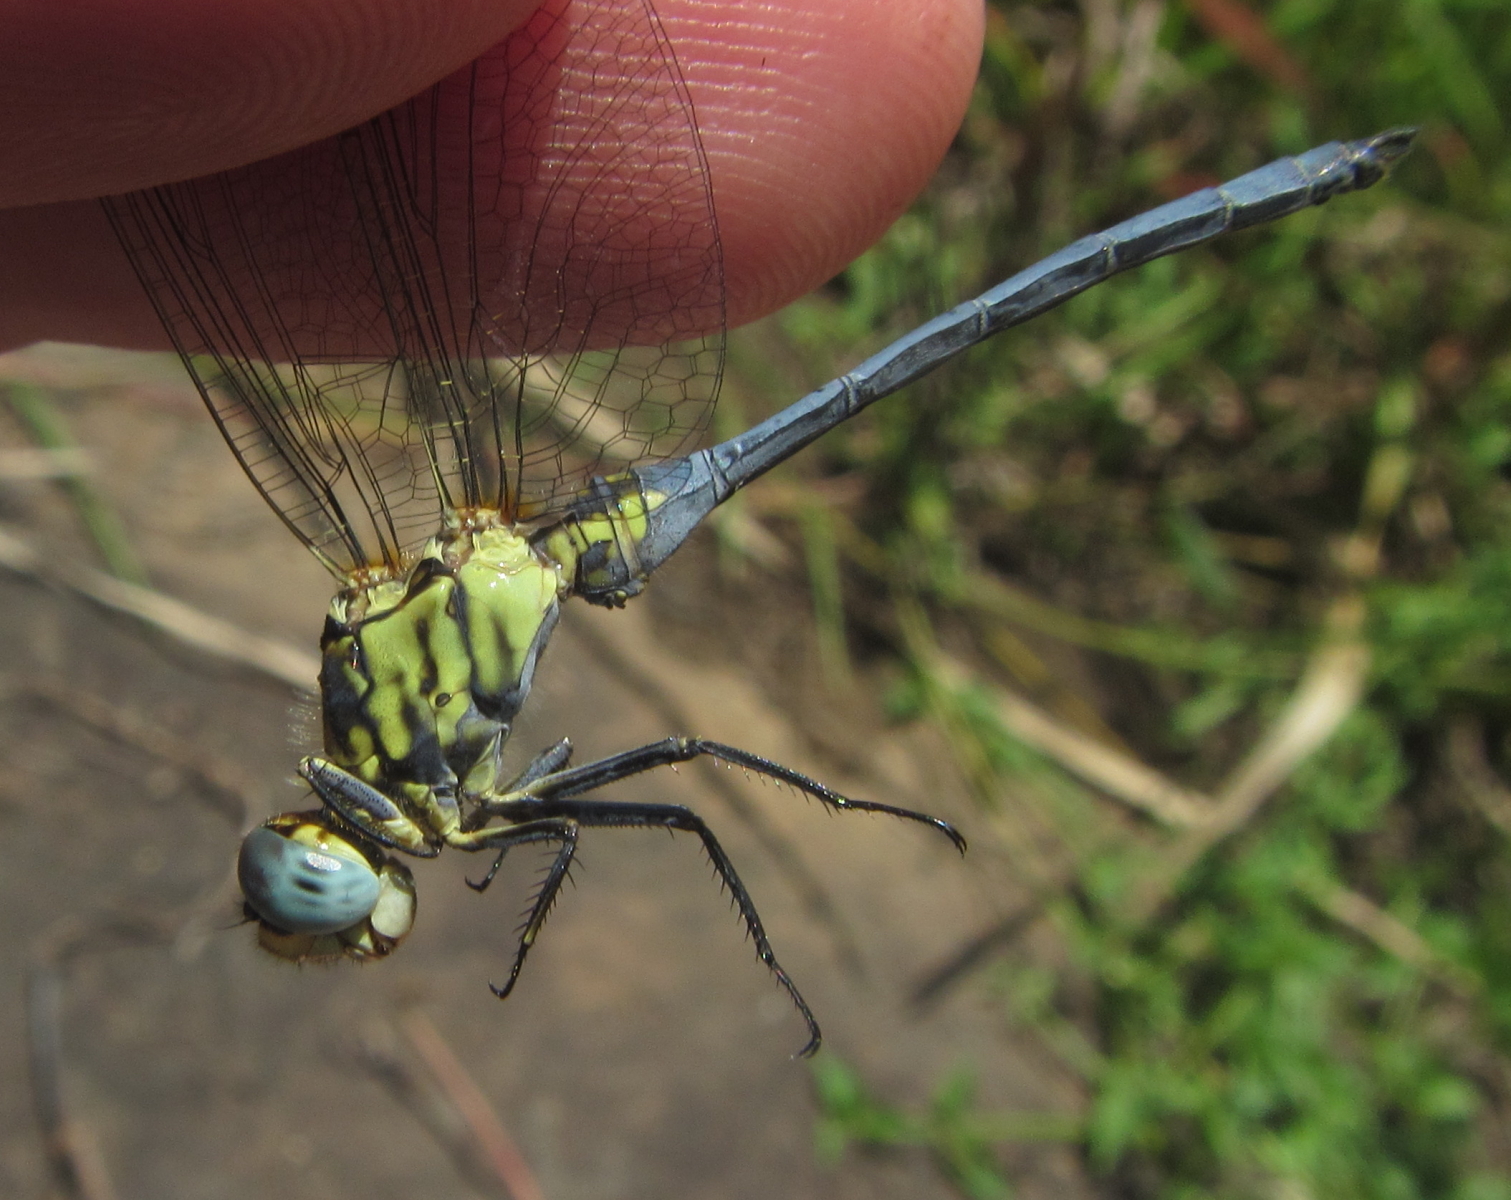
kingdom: Animalia
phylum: Arthropoda
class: Insecta
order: Odonata
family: Libellulidae
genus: Orthetrum
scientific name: Orthetrum abbotti
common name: Abbott's skimmer
